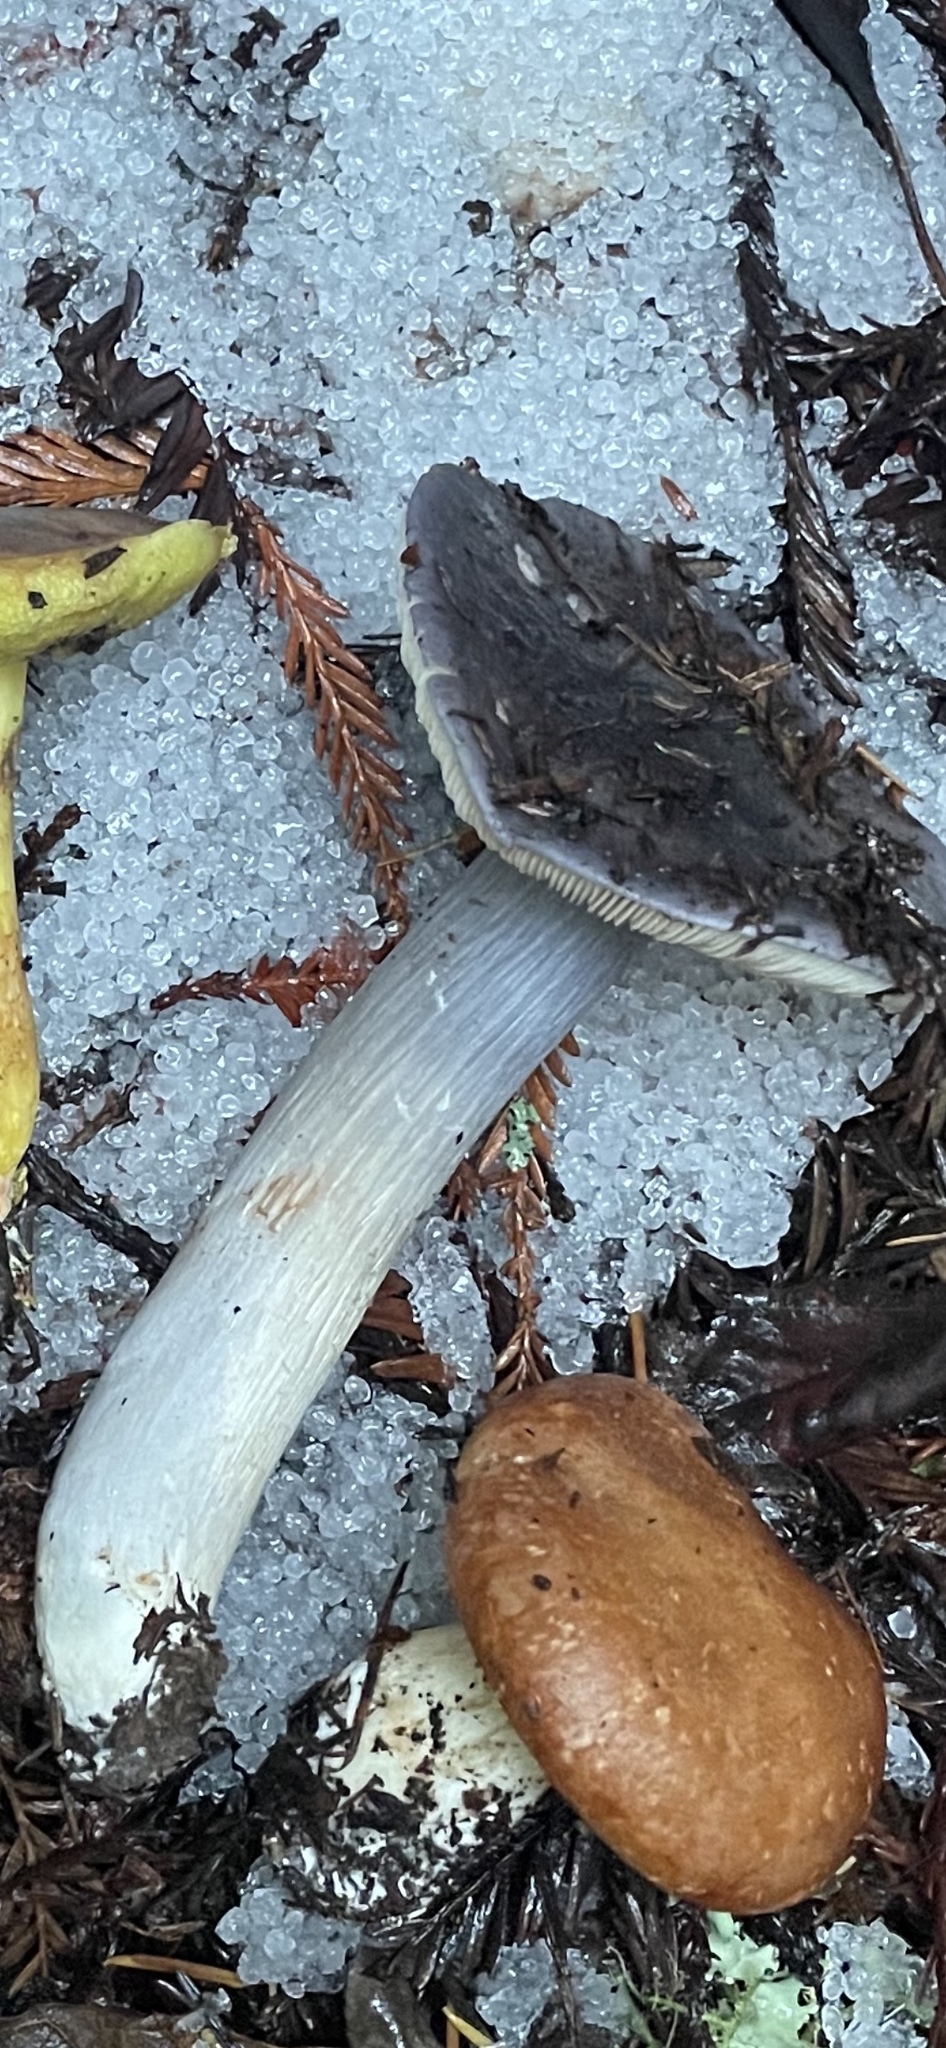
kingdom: Fungi
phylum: Basidiomycota
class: Agaricomycetes
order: Agaricales
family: Entolomataceae
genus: Entoloma
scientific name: Entoloma medianox
